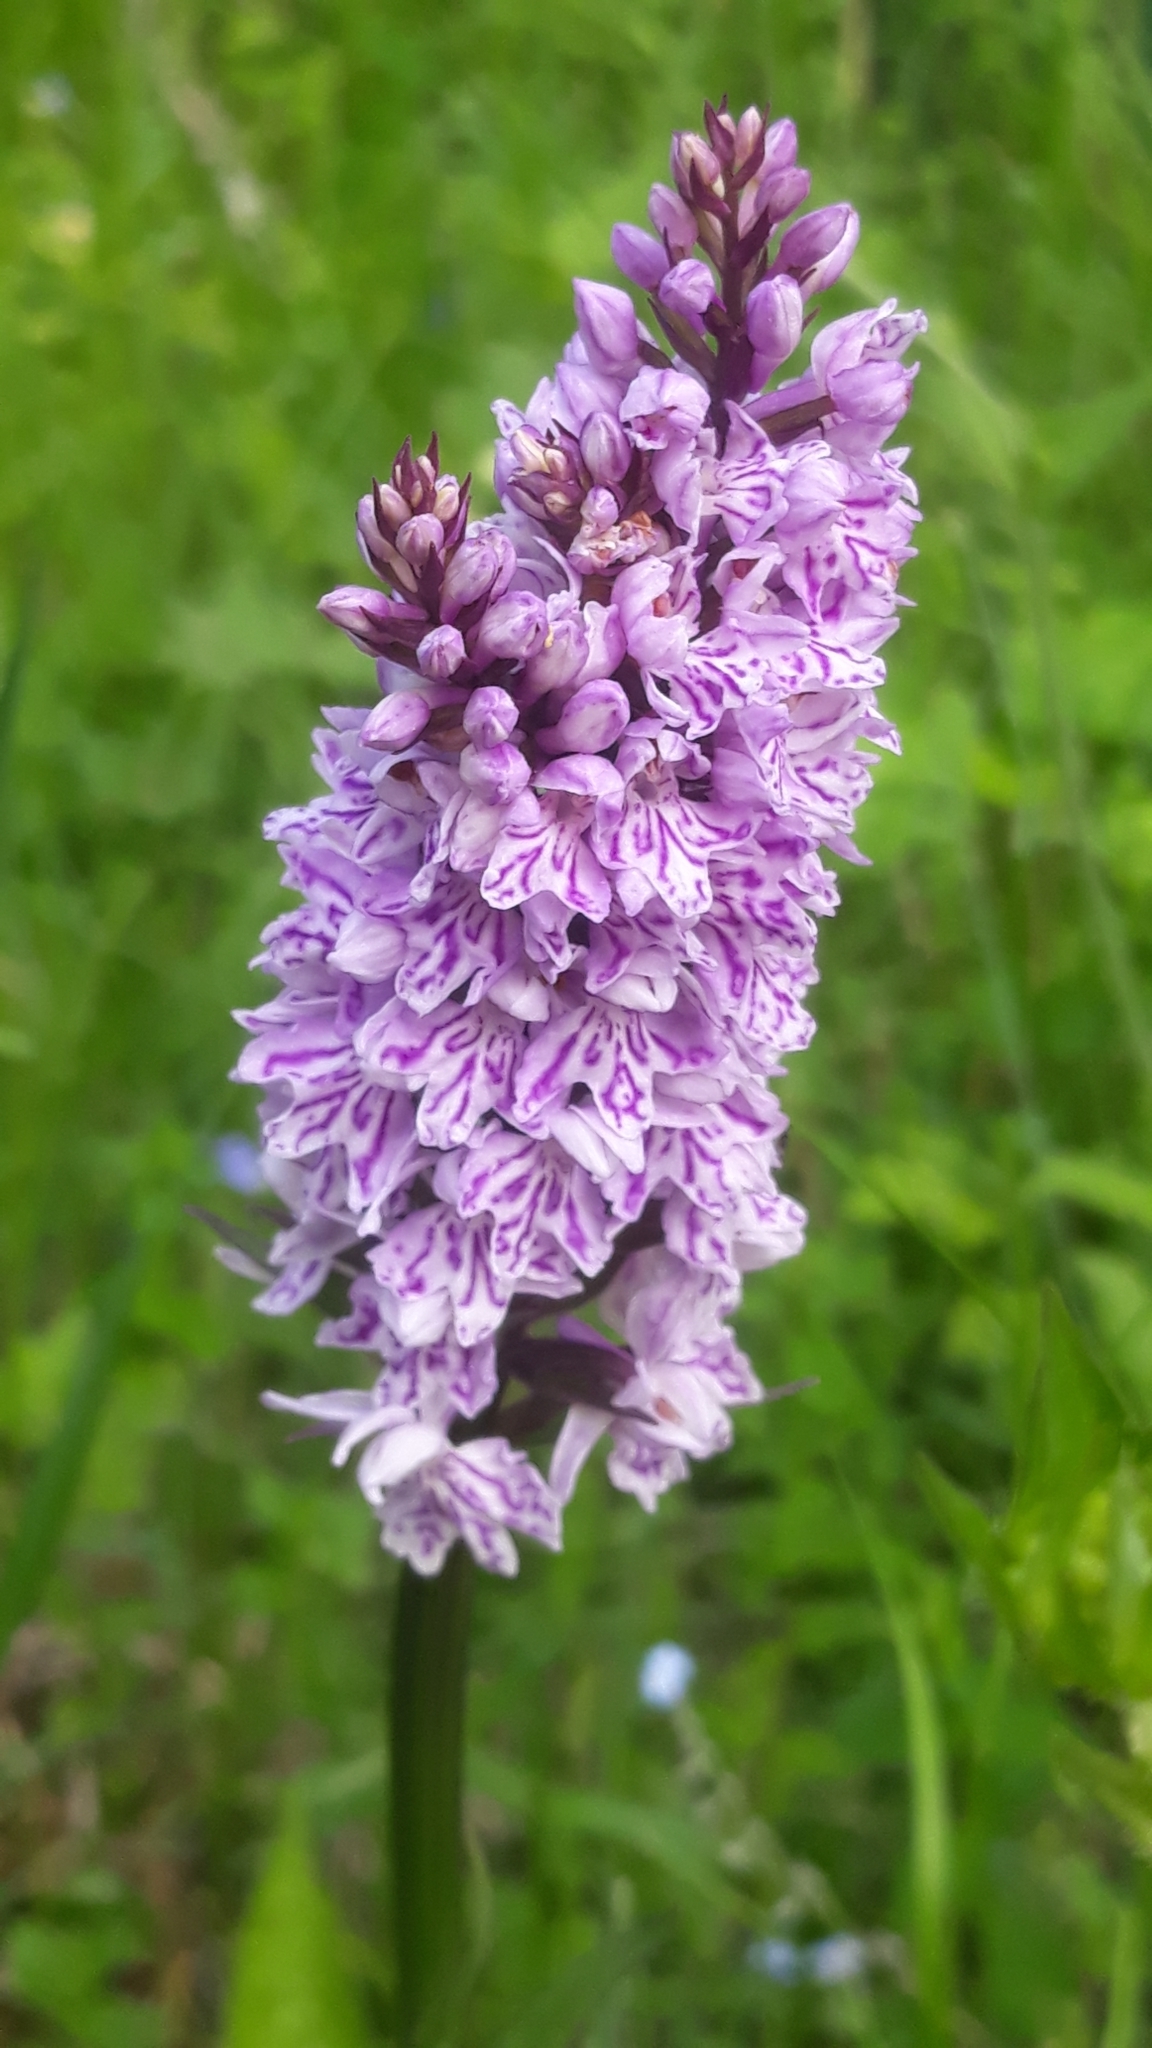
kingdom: Plantae
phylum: Tracheophyta
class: Liliopsida
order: Asparagales
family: Orchidaceae
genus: Dactylorhiza
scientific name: Dactylorhiza maculata
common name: Heath spotted-orchid
